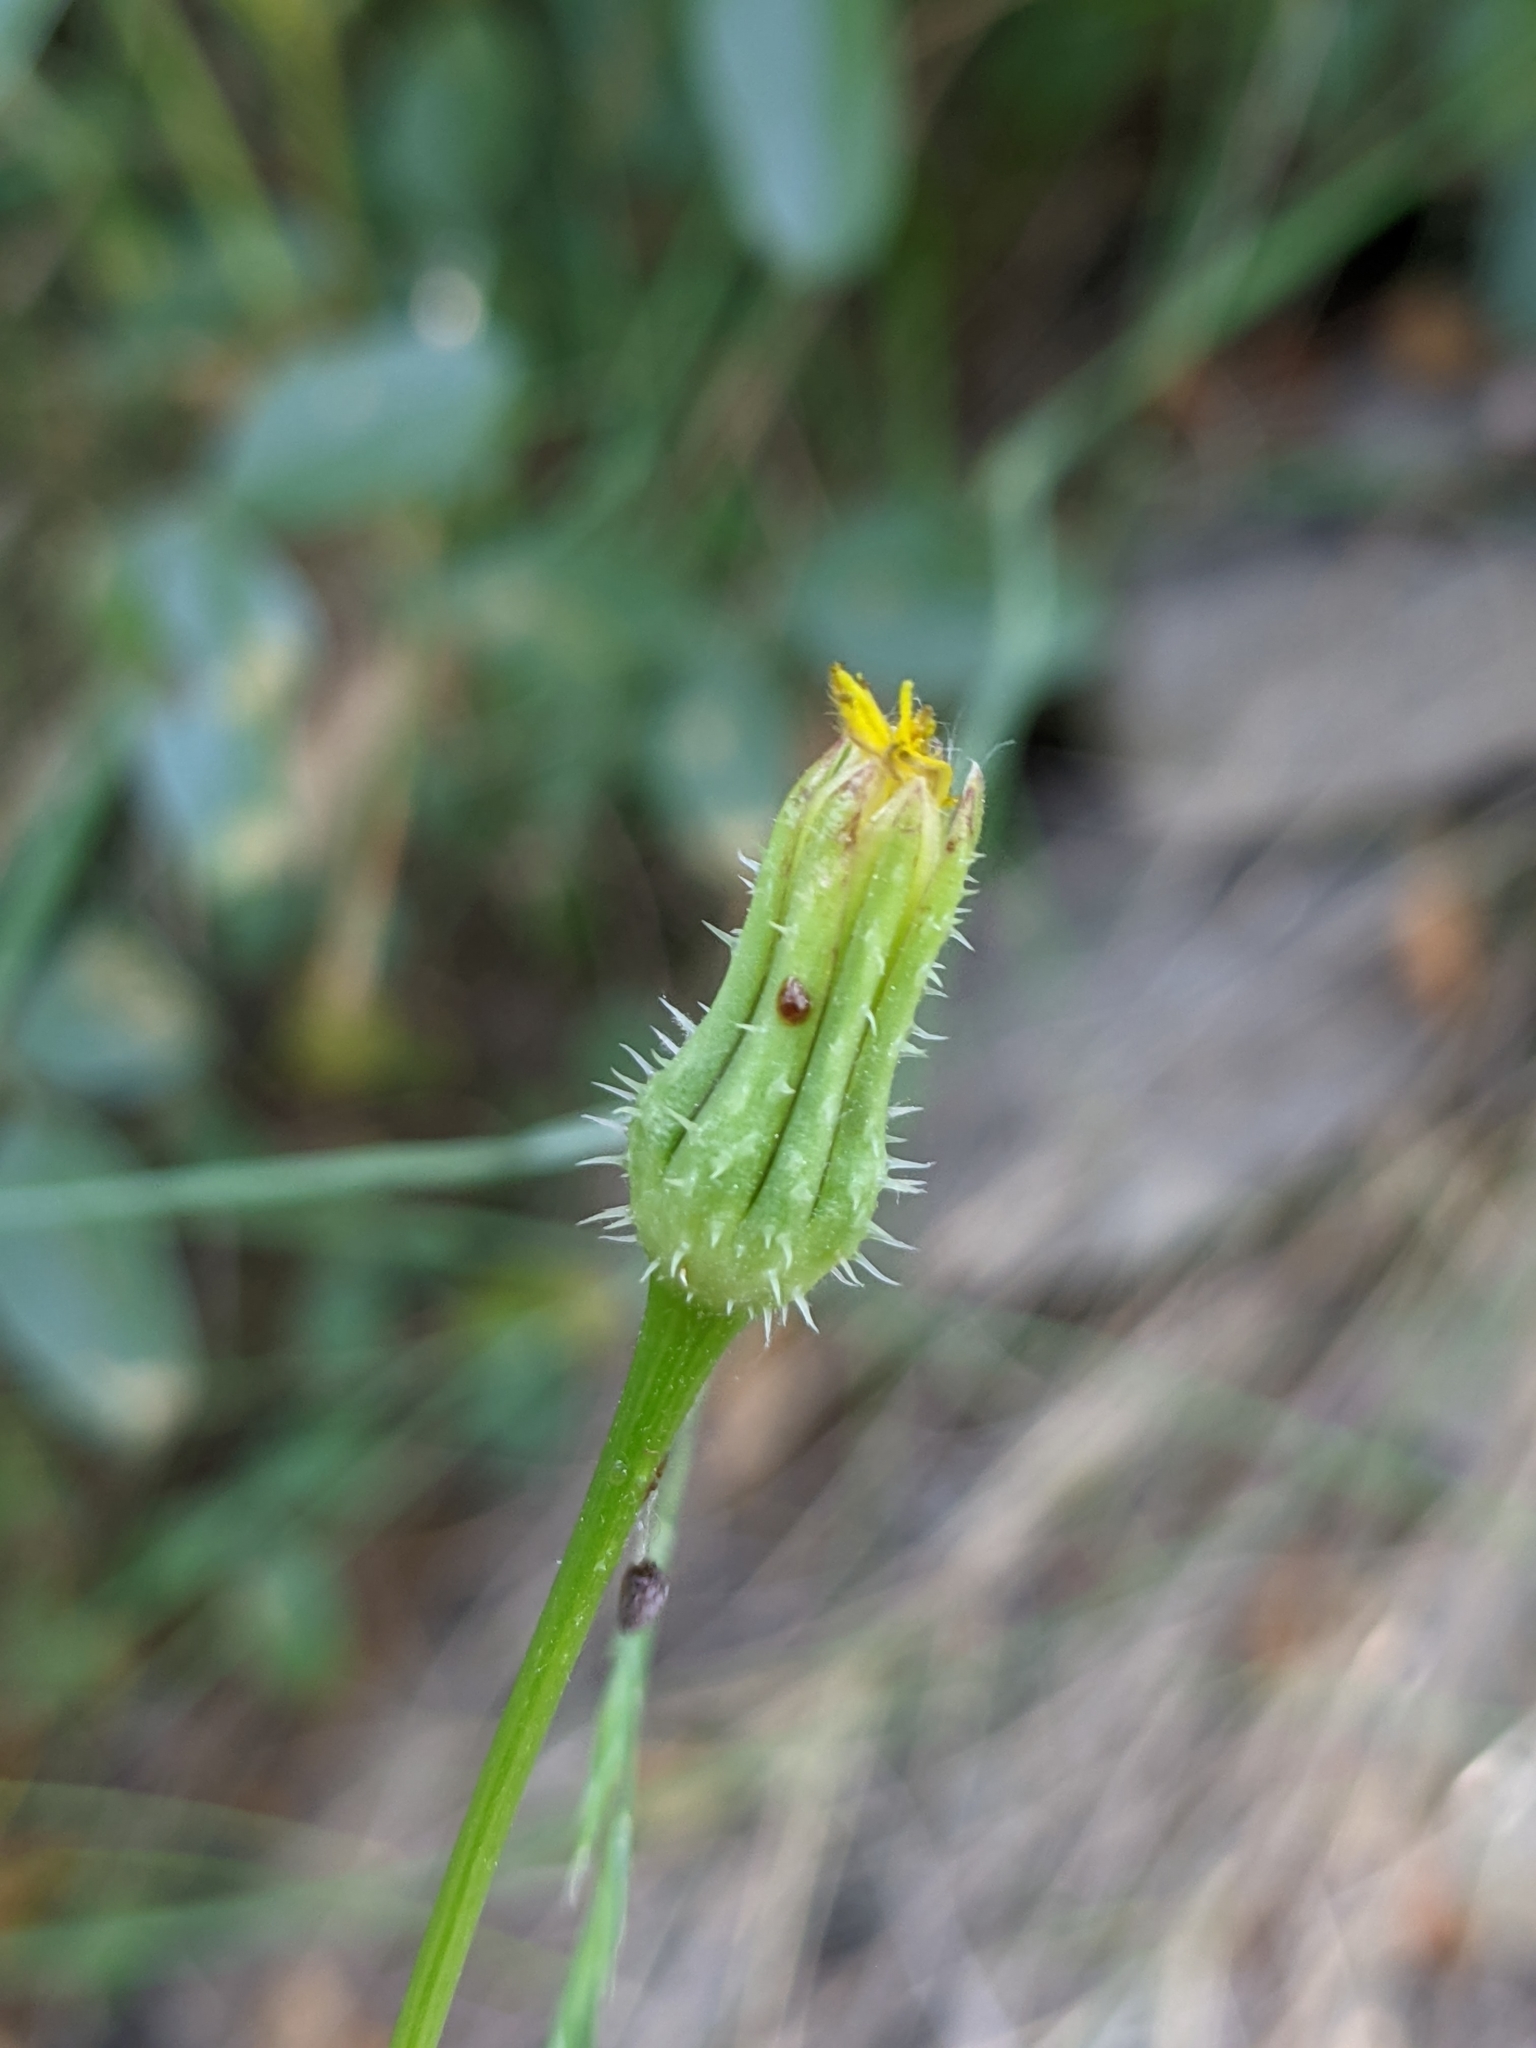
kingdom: Plantae
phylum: Tracheophyta
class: Magnoliopsida
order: Asterales
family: Asteraceae
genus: Urospermum
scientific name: Urospermum picroides
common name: False hawkbit
